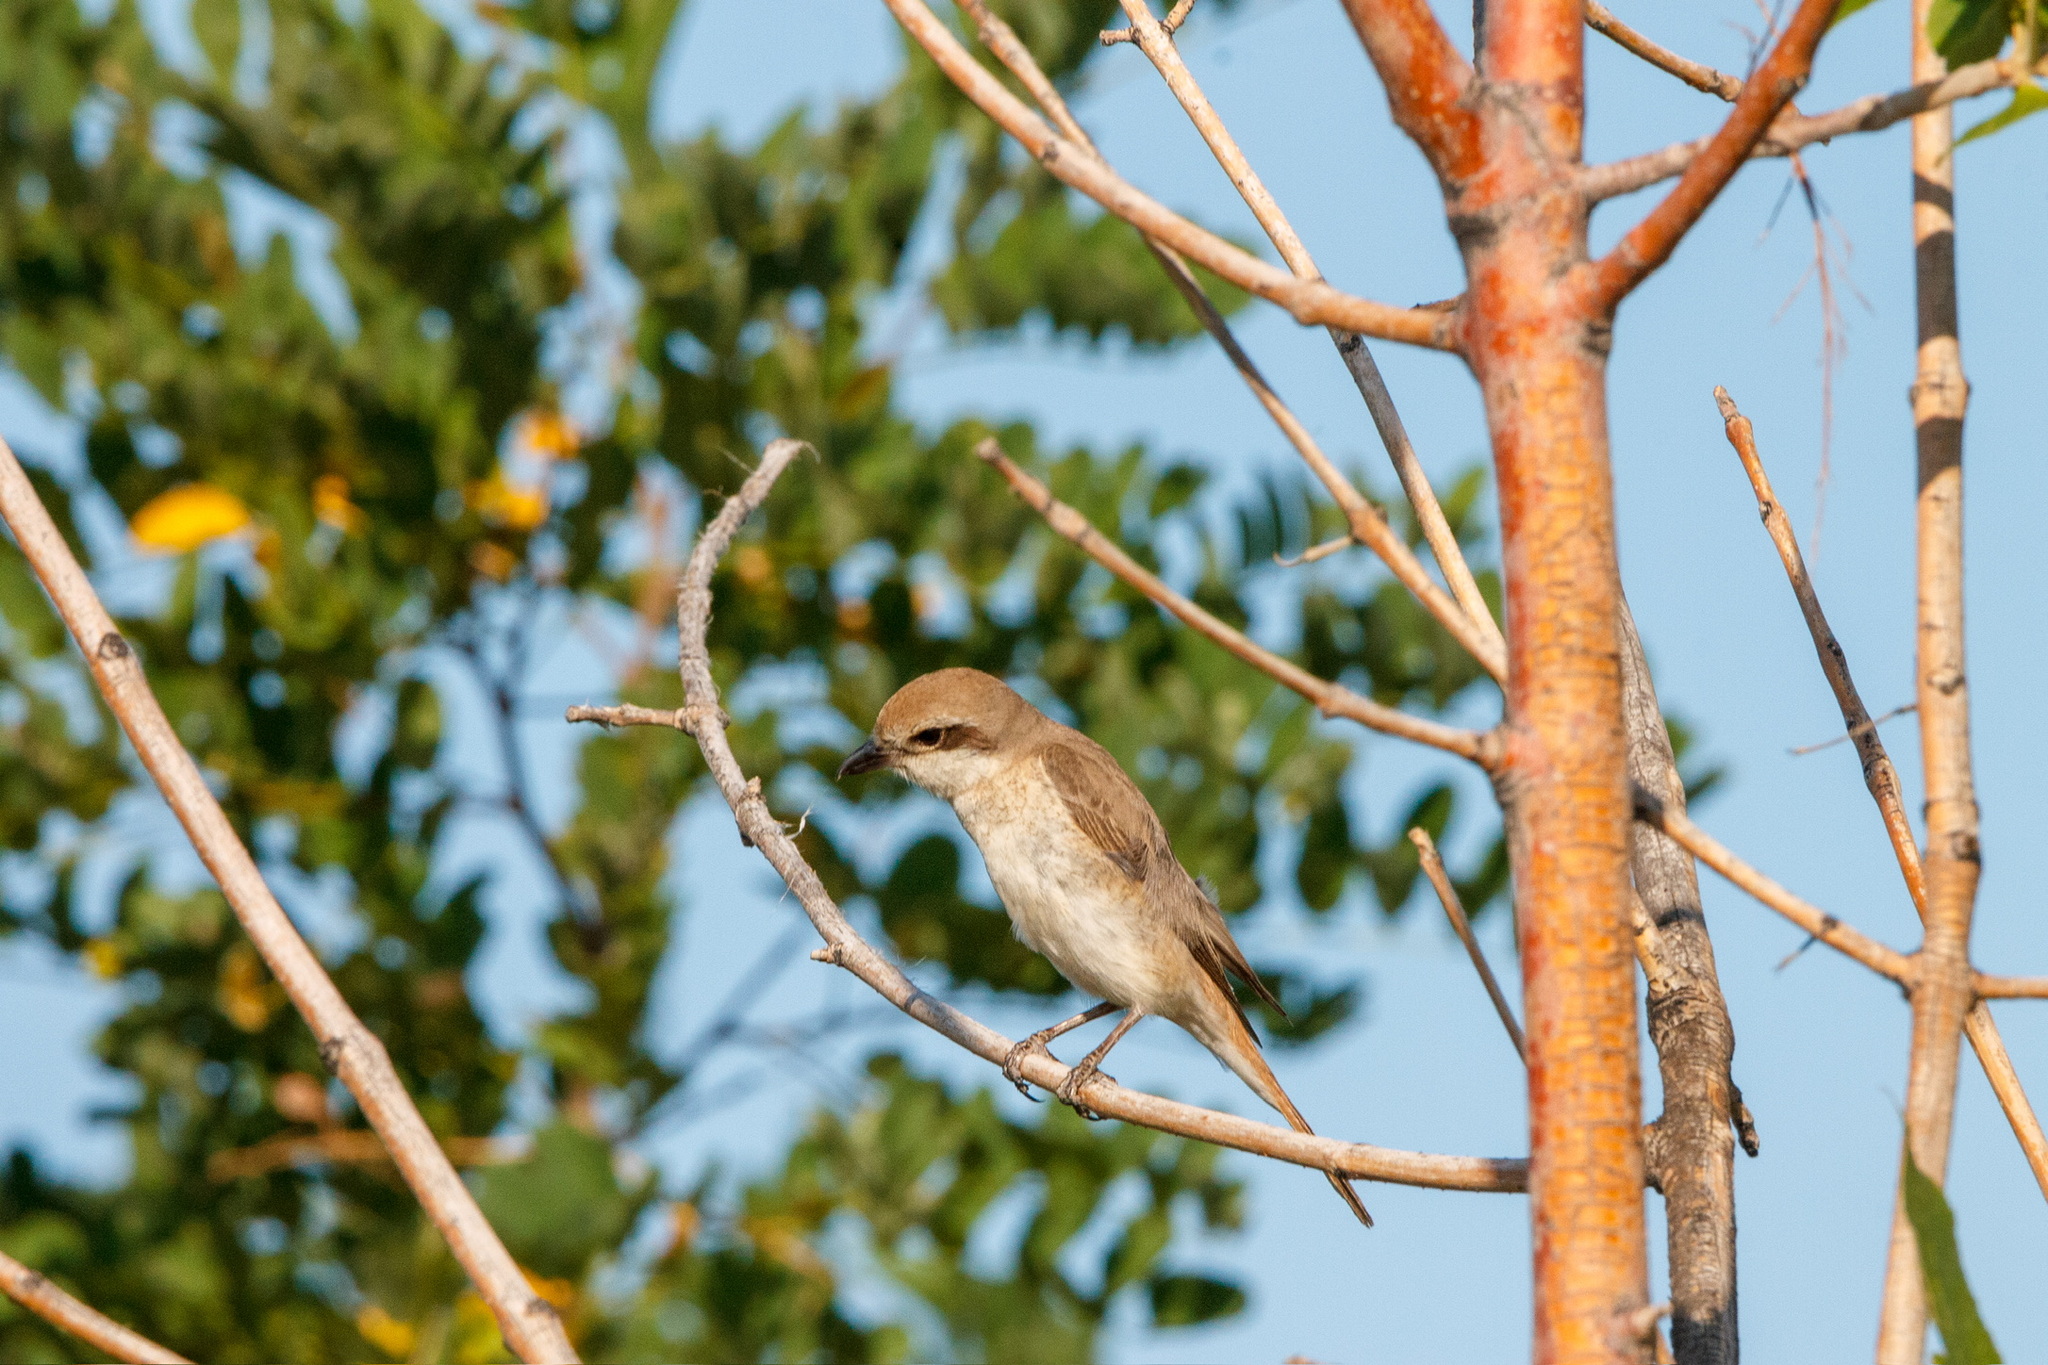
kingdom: Animalia
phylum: Chordata
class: Aves
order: Passeriformes
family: Laniidae
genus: Lanius
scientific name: Lanius phoenicuroides
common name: Red-tailed shrike
